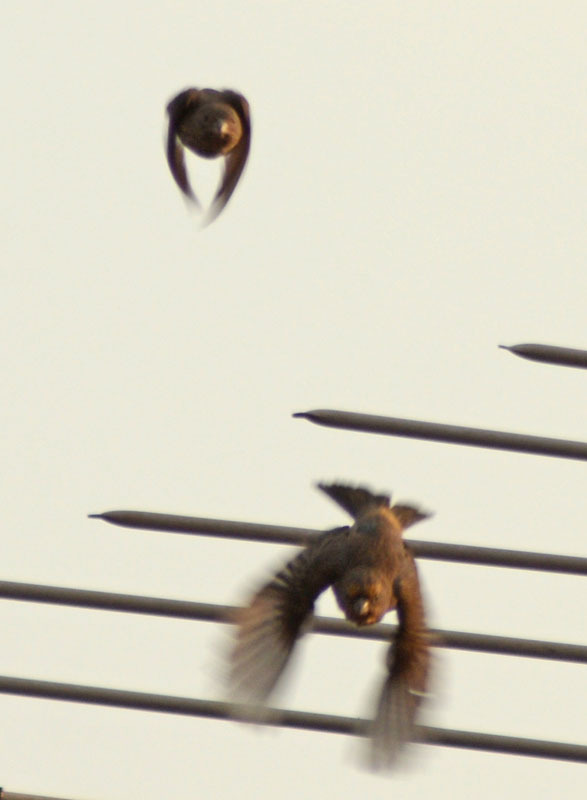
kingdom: Animalia
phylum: Chordata
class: Aves
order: Passeriformes
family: Fringillidae
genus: Haemorhous
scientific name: Haemorhous mexicanus
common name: House finch
